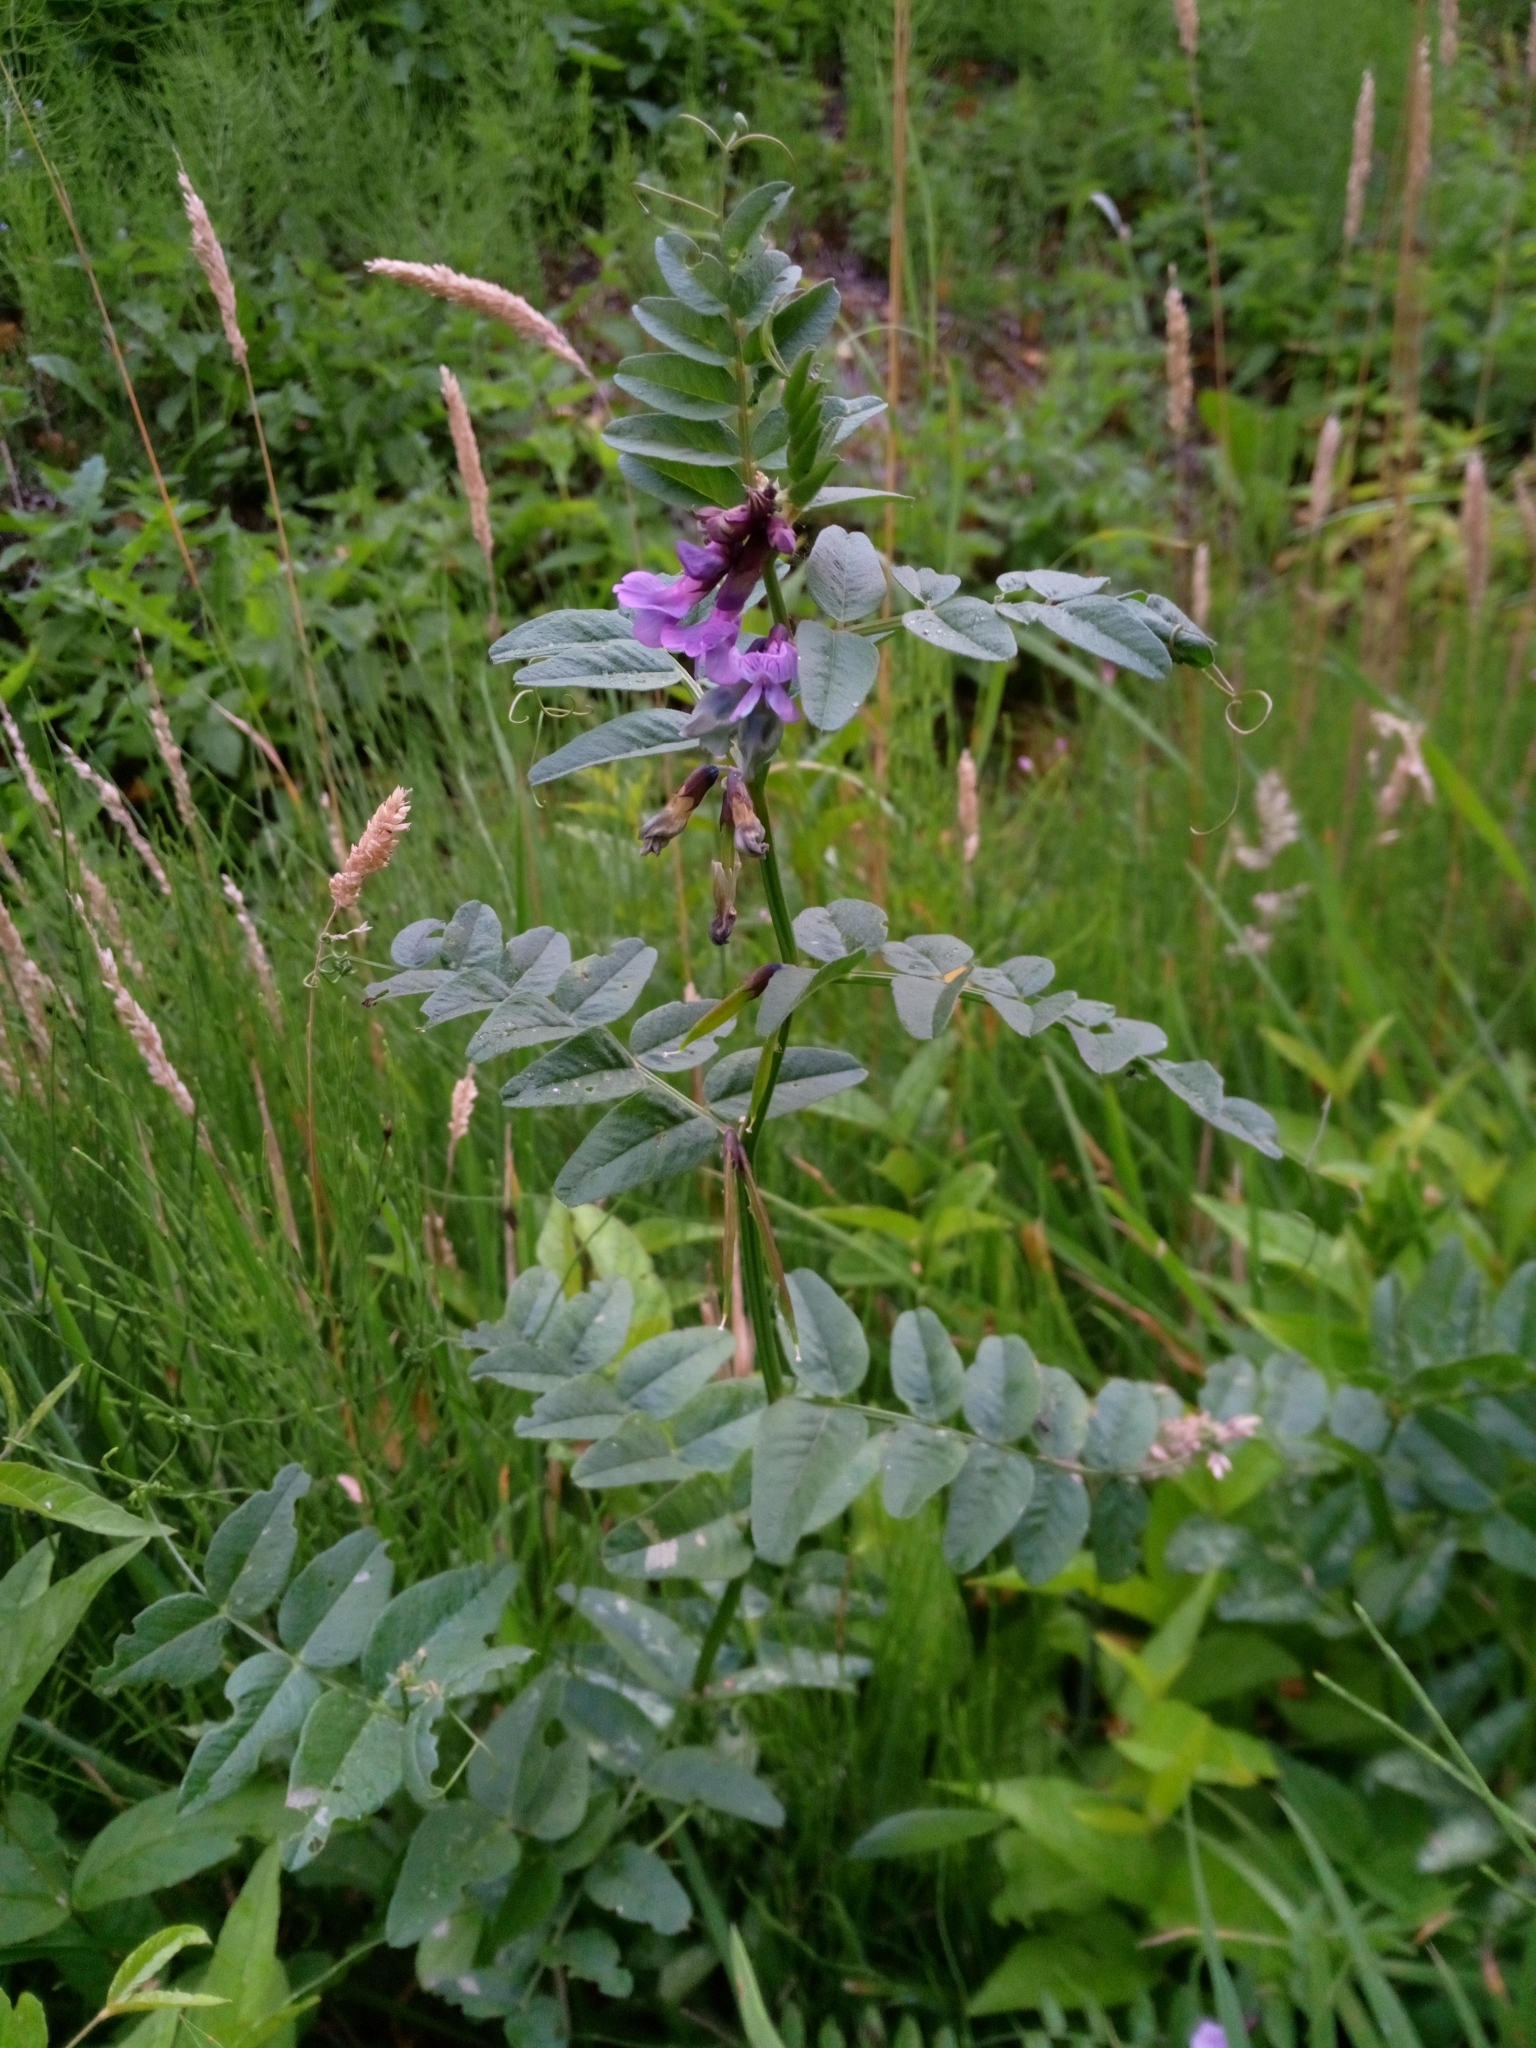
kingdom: Plantae
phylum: Tracheophyta
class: Magnoliopsida
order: Fabales
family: Fabaceae
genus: Vicia
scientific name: Vicia sepium
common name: Bush vetch
